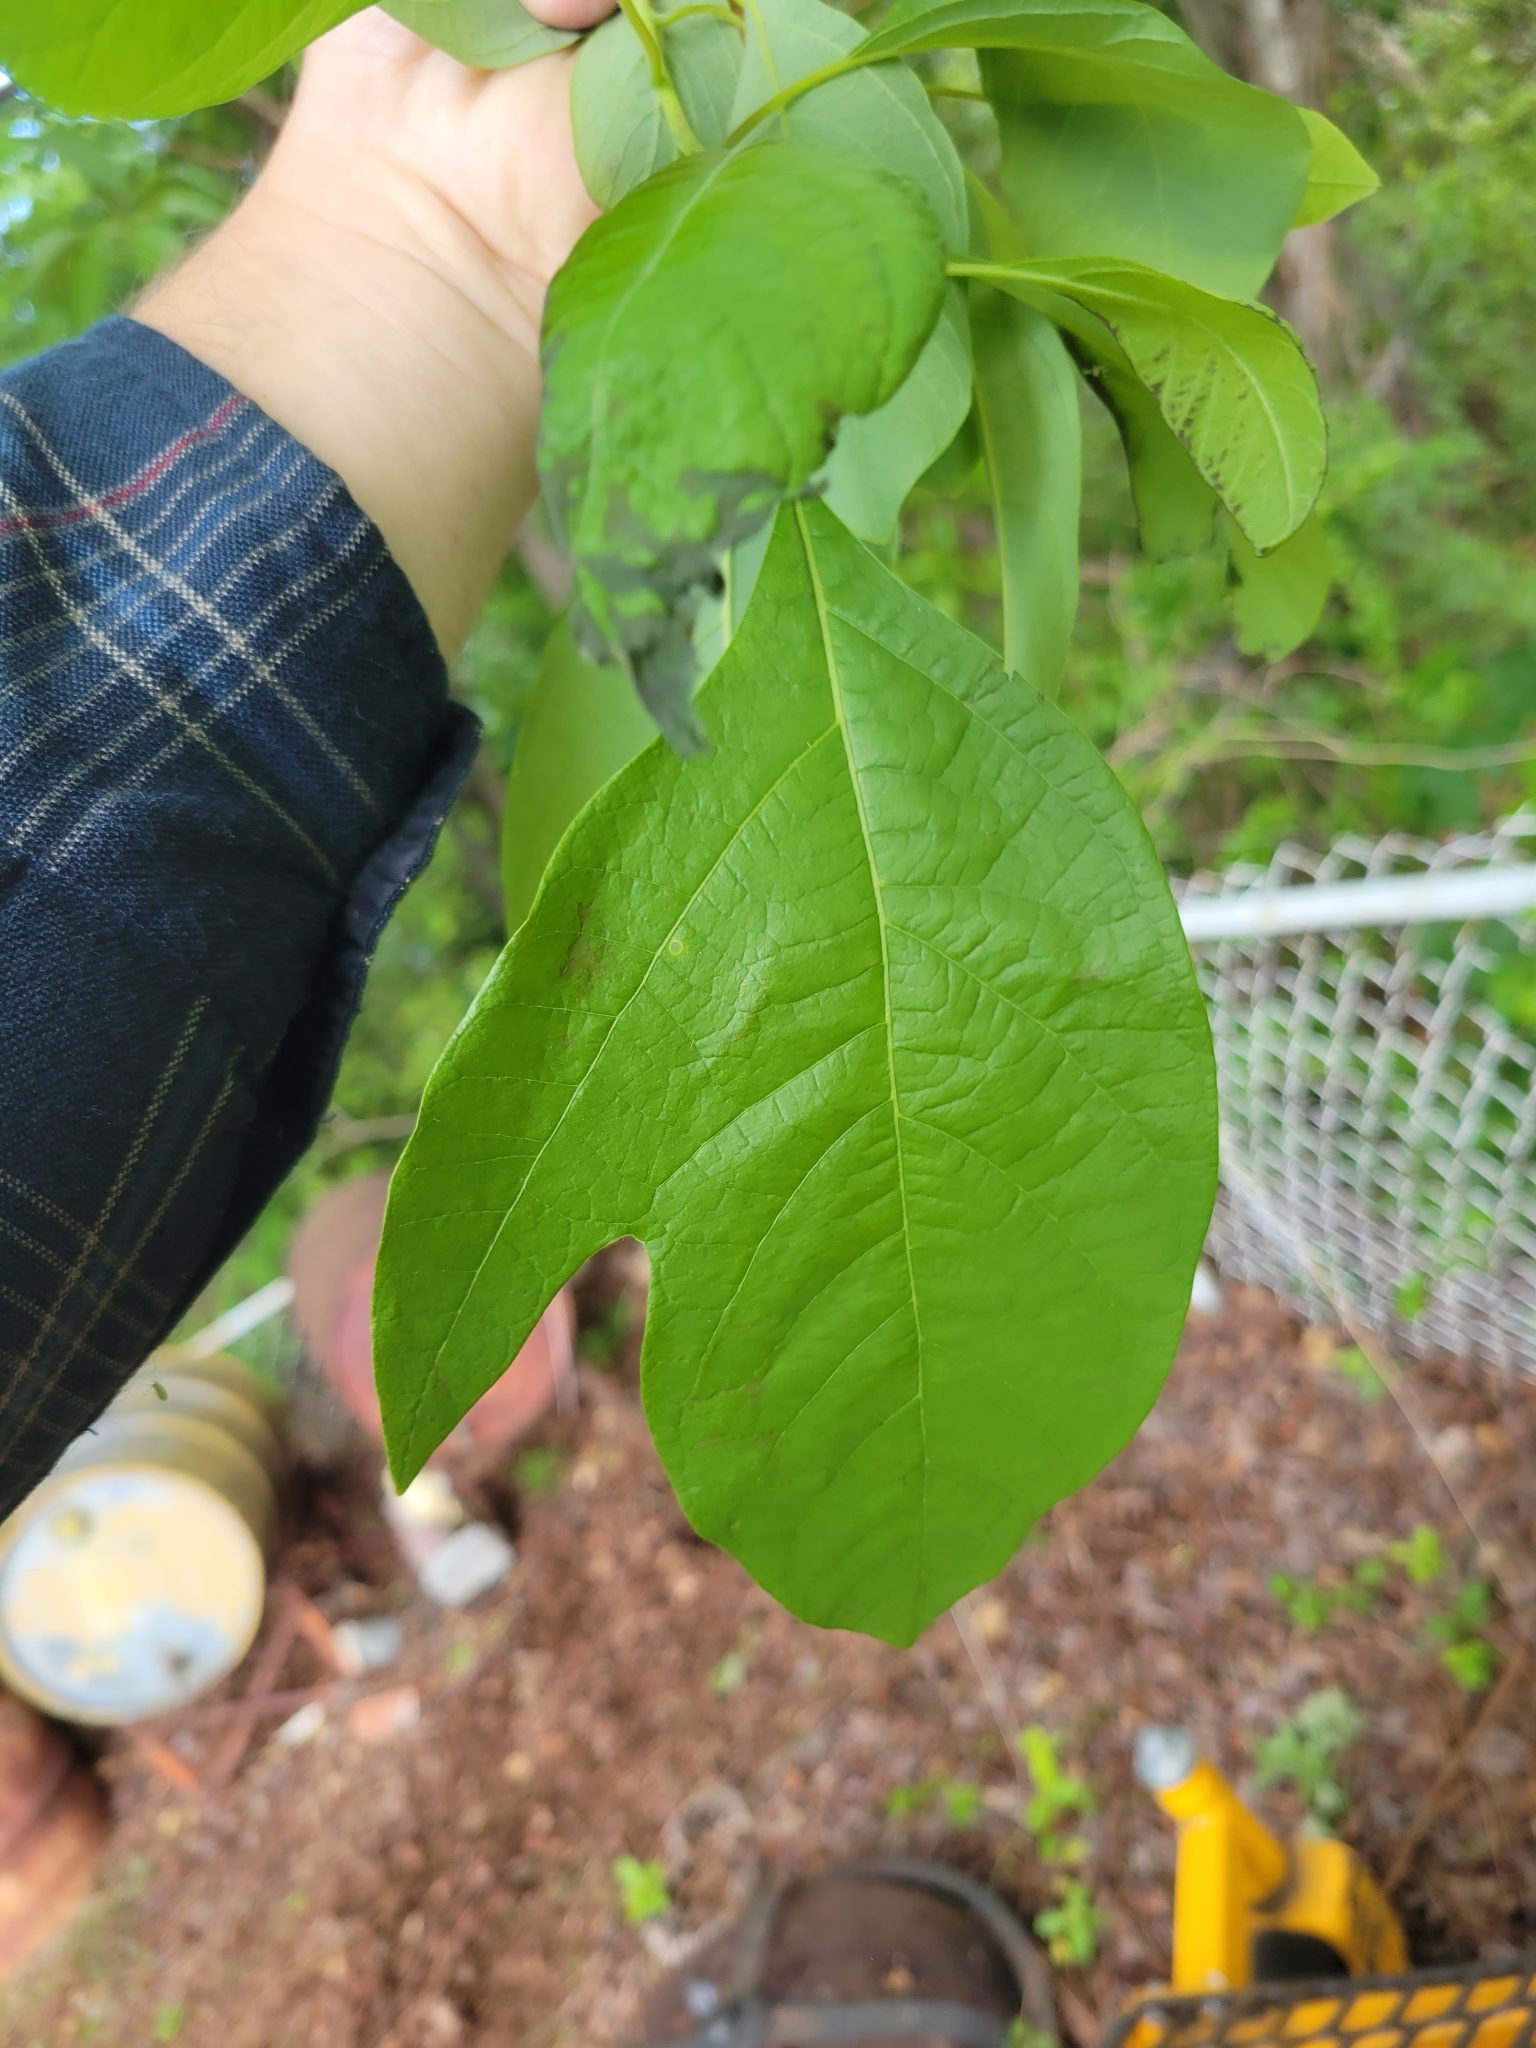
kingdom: Plantae
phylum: Tracheophyta
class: Magnoliopsida
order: Laurales
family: Lauraceae
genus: Sassafras
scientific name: Sassafras albidum
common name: Sassafras
